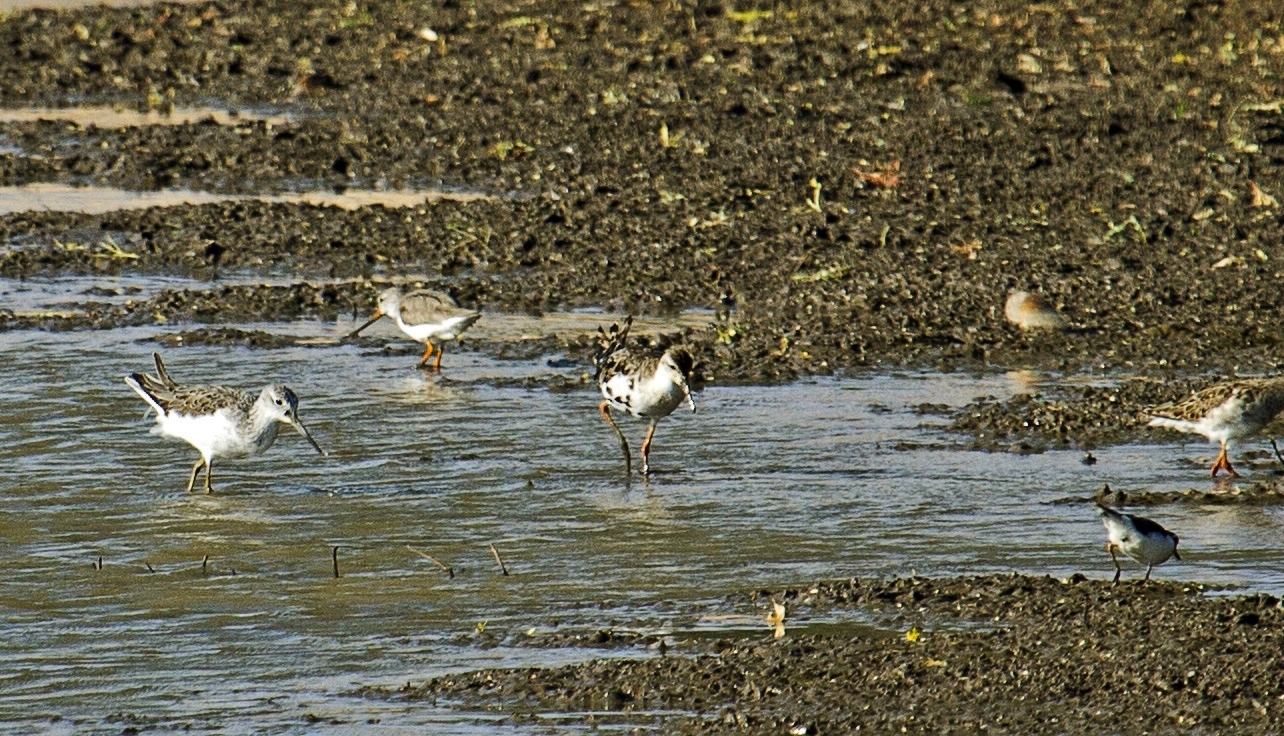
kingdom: Animalia
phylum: Chordata
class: Aves
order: Charadriiformes
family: Scolopacidae
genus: Xenus
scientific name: Xenus cinereus
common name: Terek sandpiper
